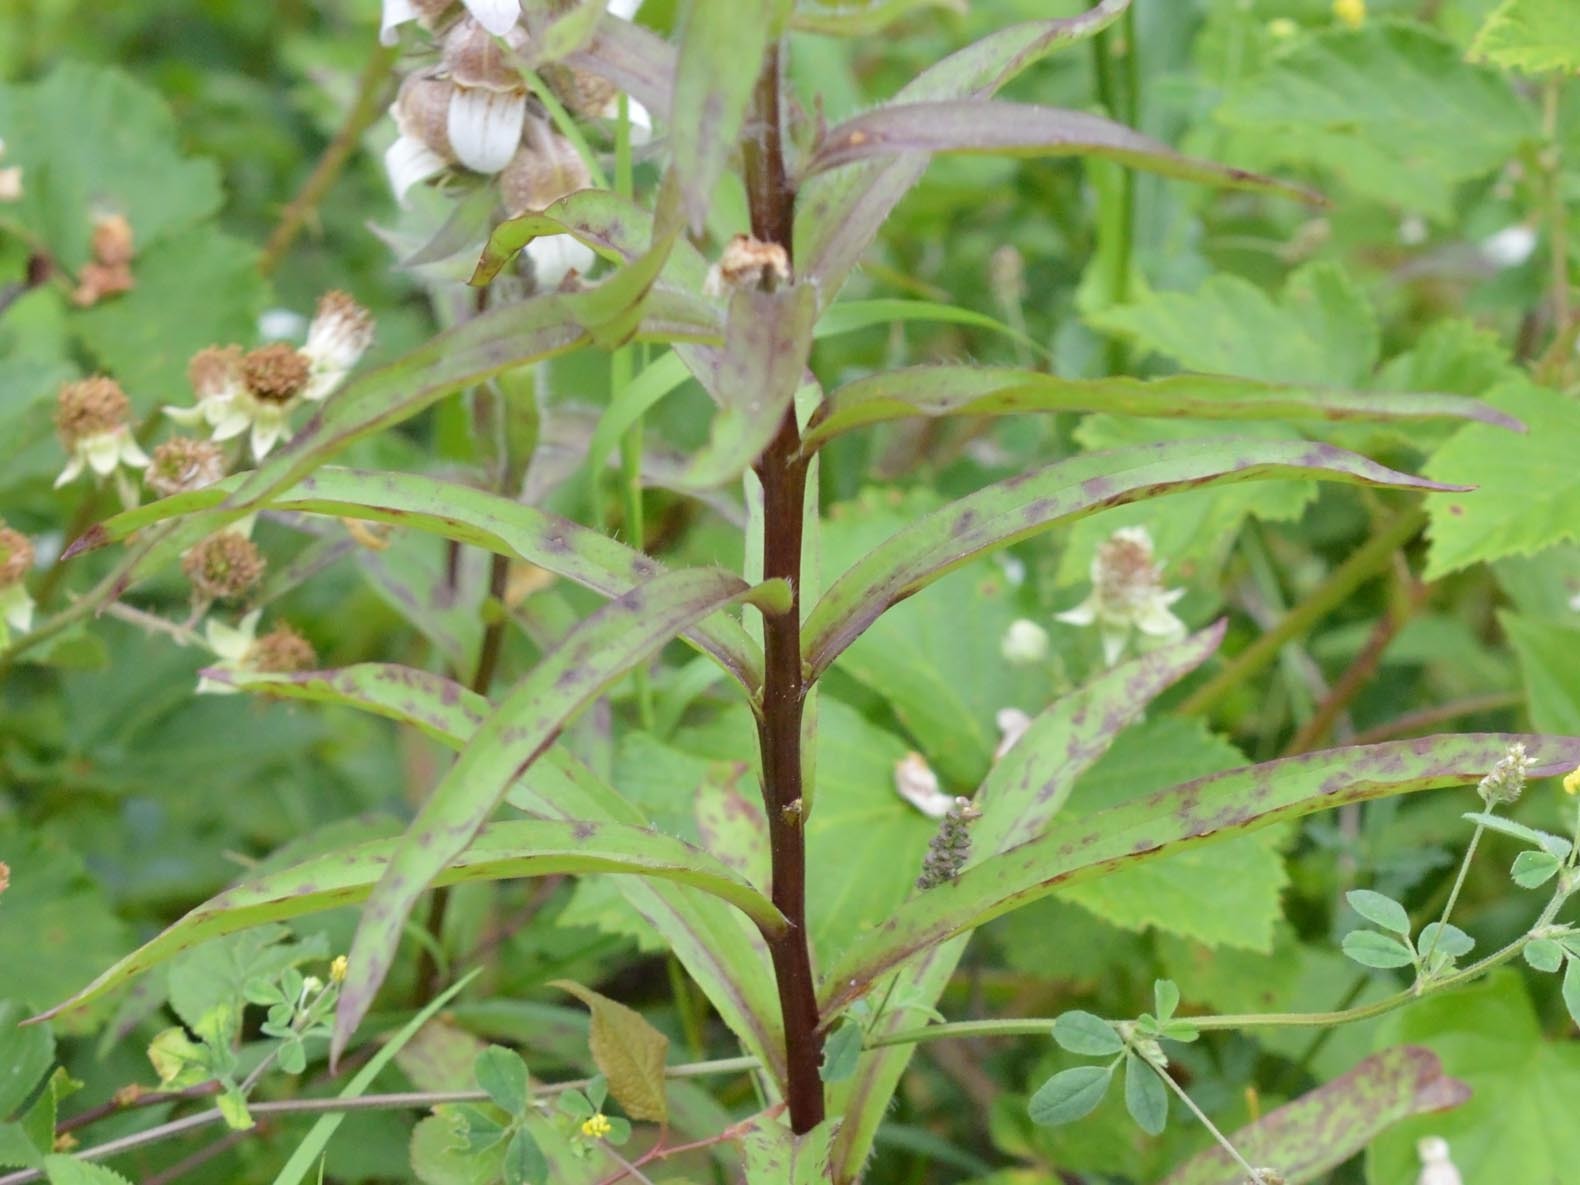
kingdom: Plantae
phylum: Tracheophyta
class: Magnoliopsida
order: Lamiales
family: Plantaginaceae
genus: Digitalis
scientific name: Digitalis lanata
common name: Grecian foxglove
